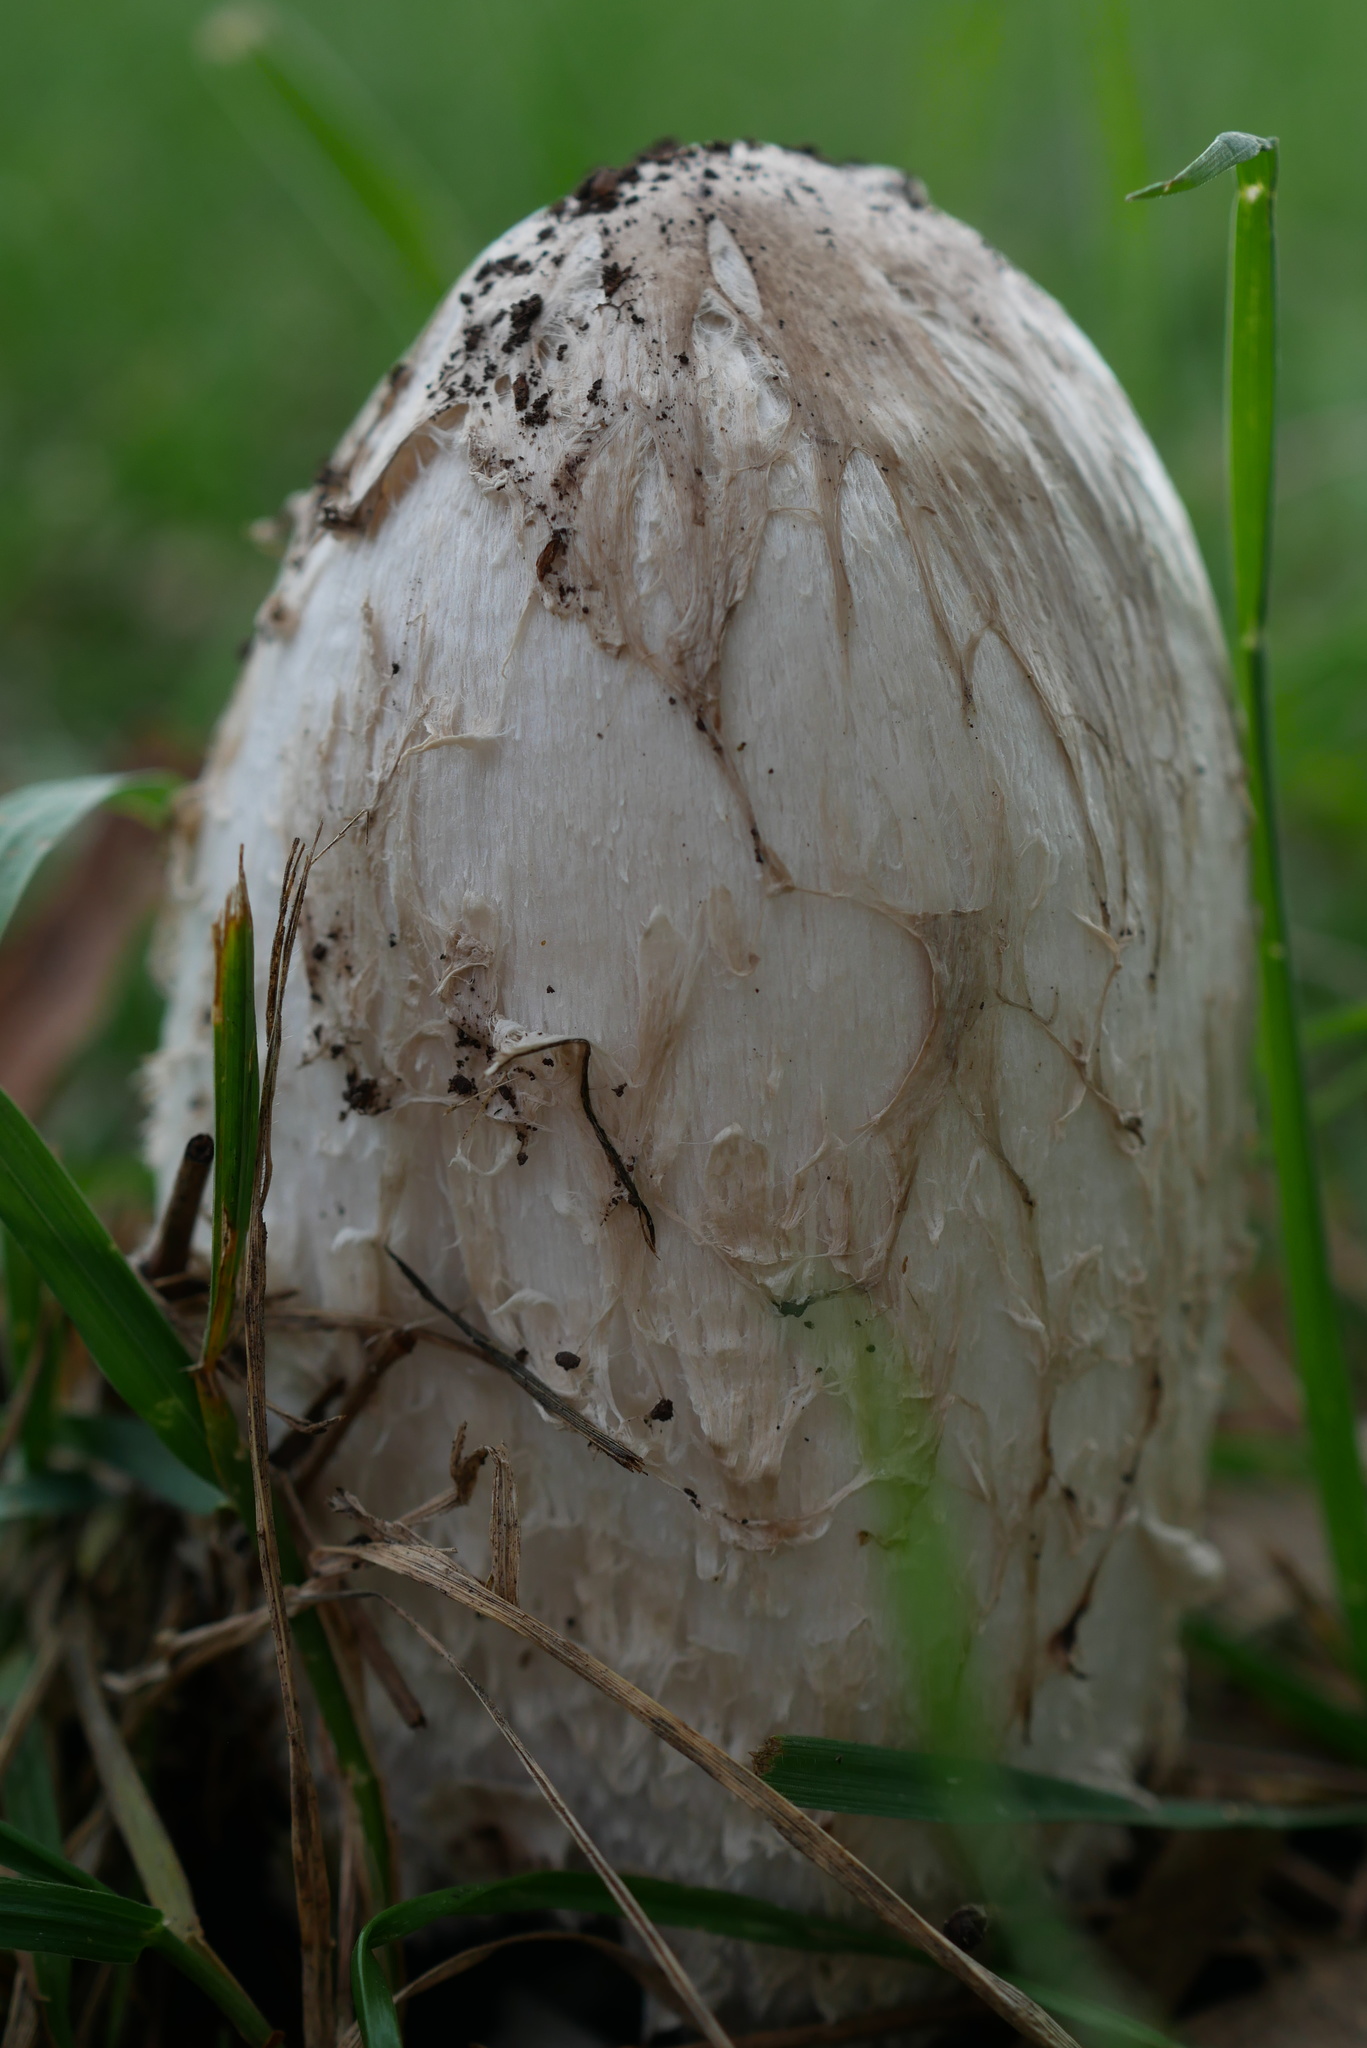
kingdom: Fungi
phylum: Basidiomycota
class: Agaricomycetes
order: Agaricales
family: Agaricaceae
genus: Coprinus
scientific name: Coprinus comatus
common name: Lawyer's wig
